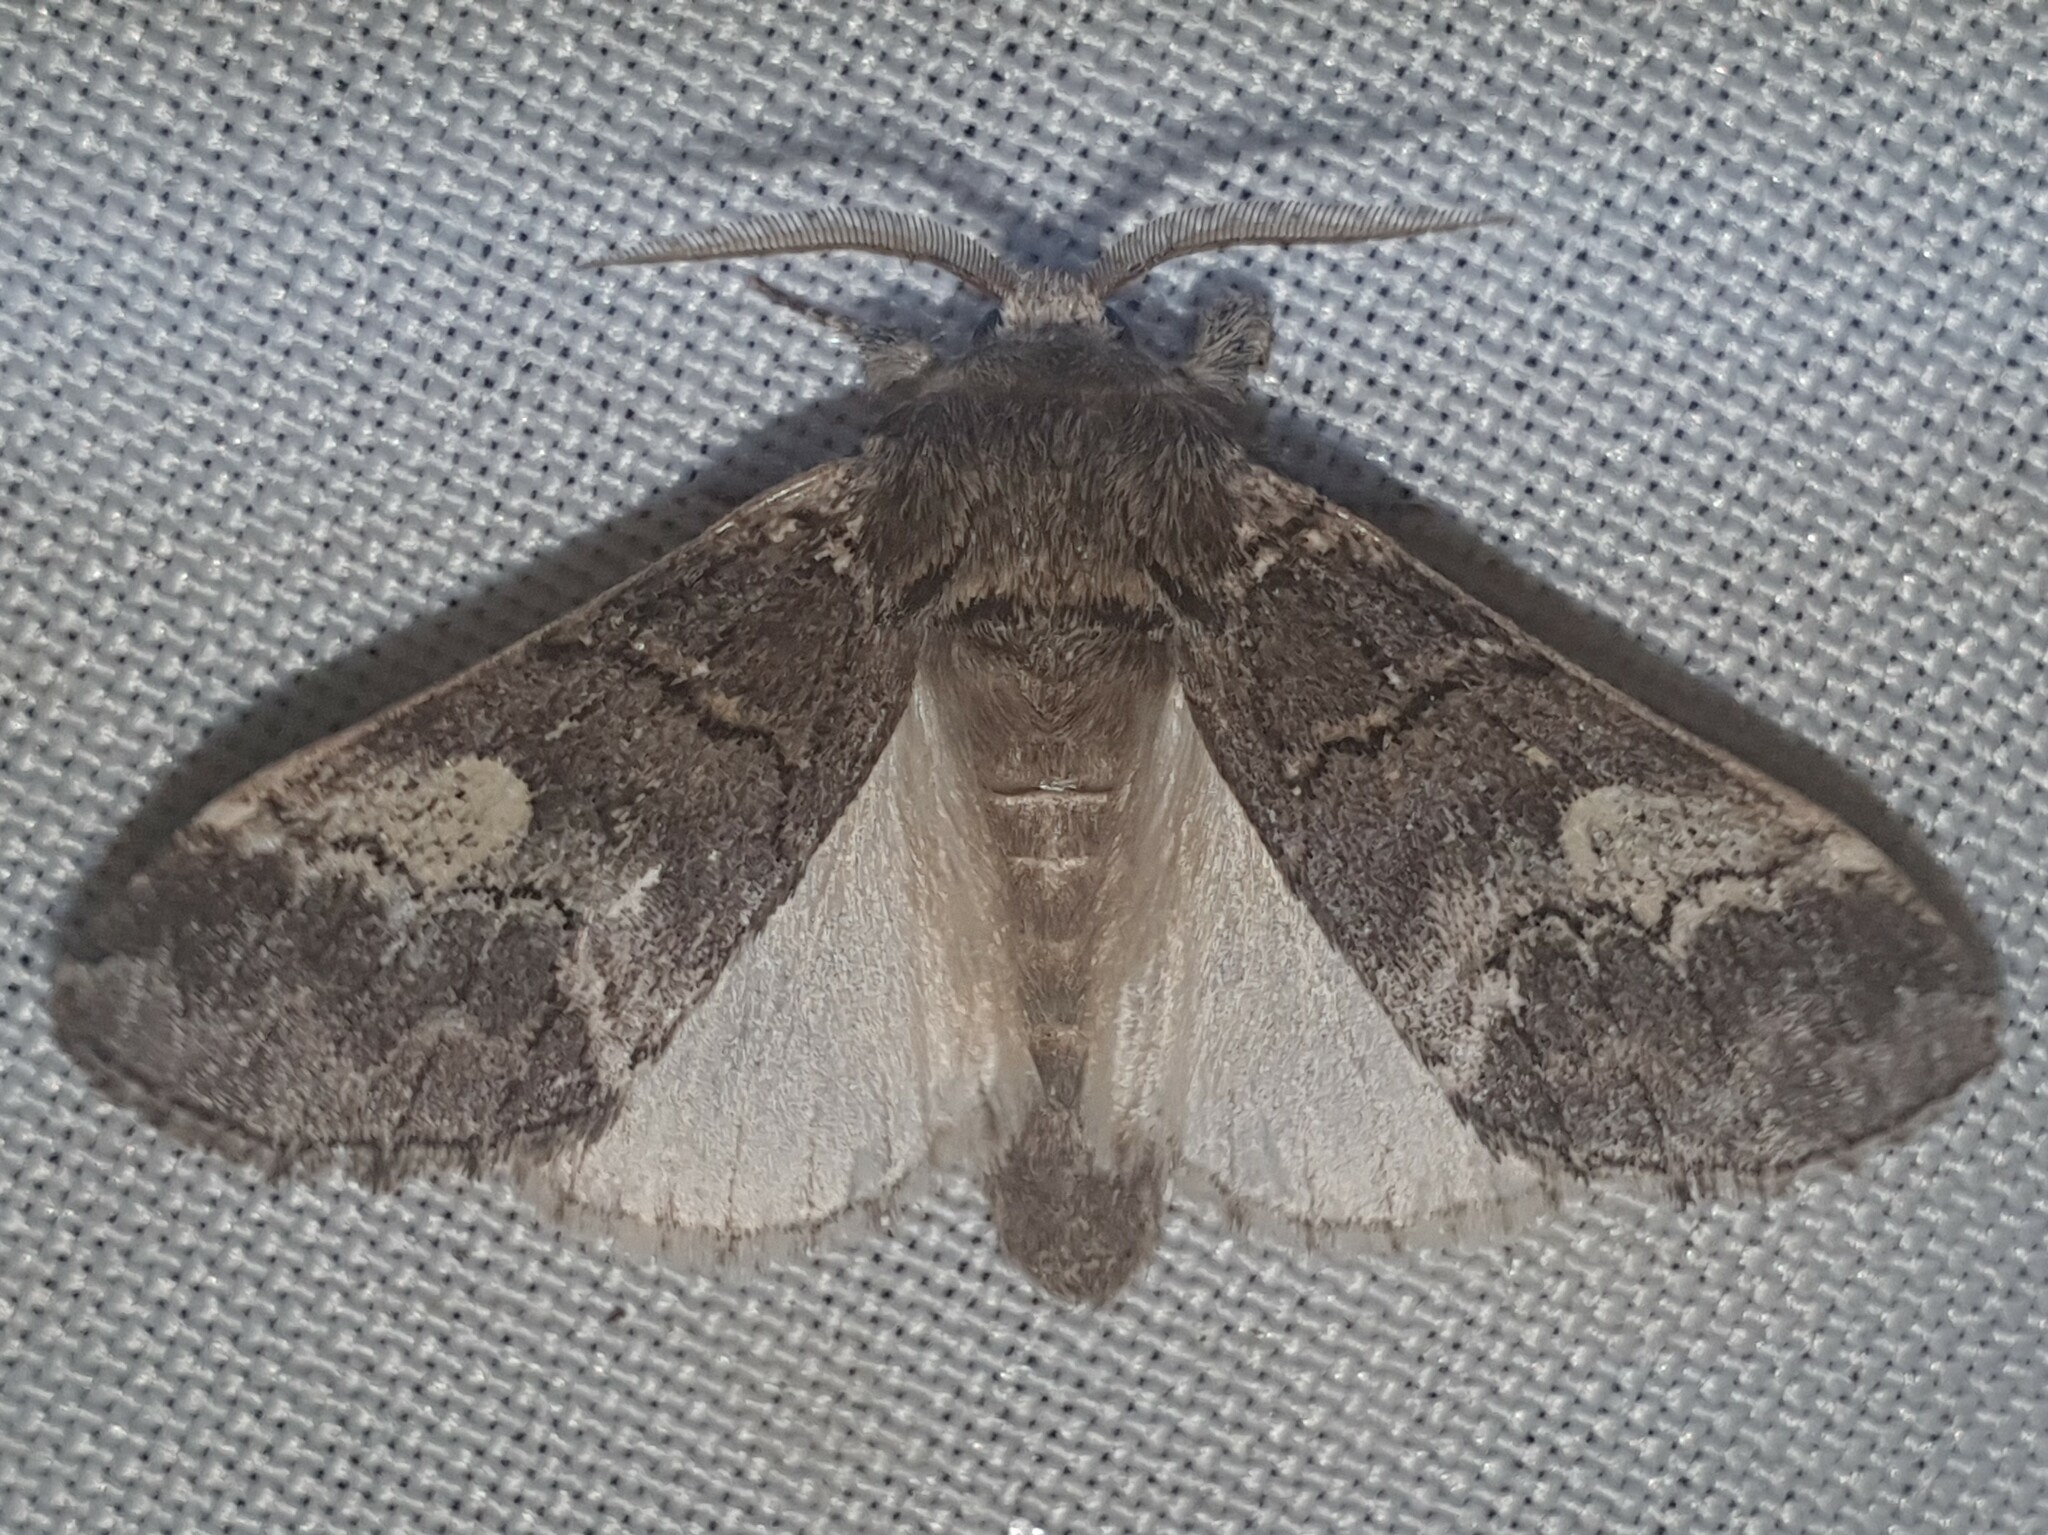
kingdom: Animalia
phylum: Arthropoda
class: Insecta
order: Lepidoptera
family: Notodontidae
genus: Drymonia
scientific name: Drymonia querna
